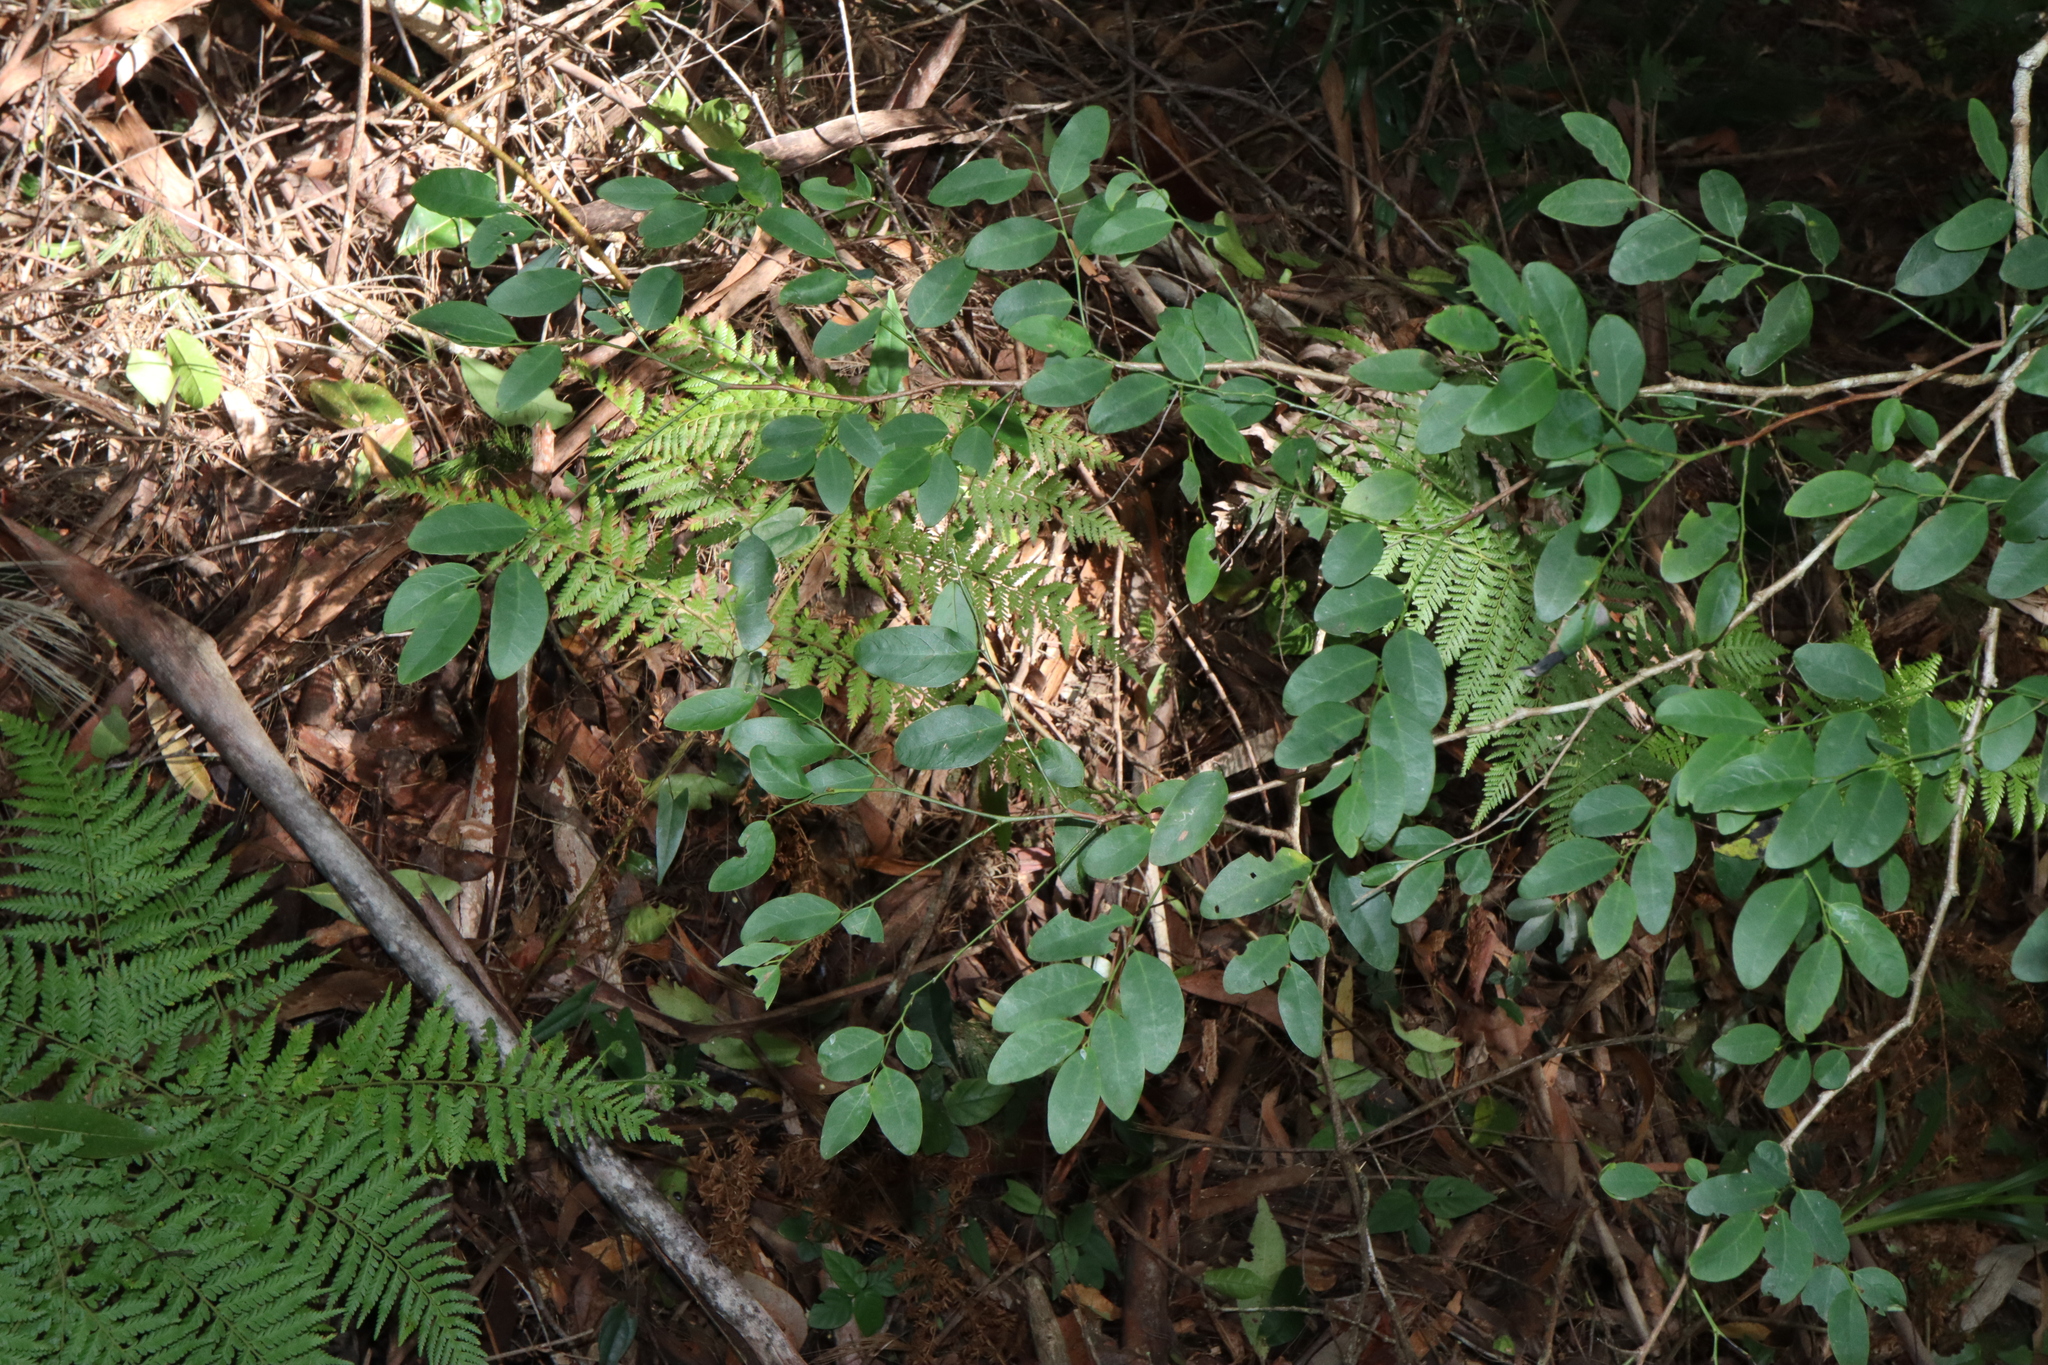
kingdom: Plantae
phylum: Tracheophyta
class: Magnoliopsida
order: Malpighiales
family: Phyllanthaceae
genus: Breynia
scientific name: Breynia oblongifolia
